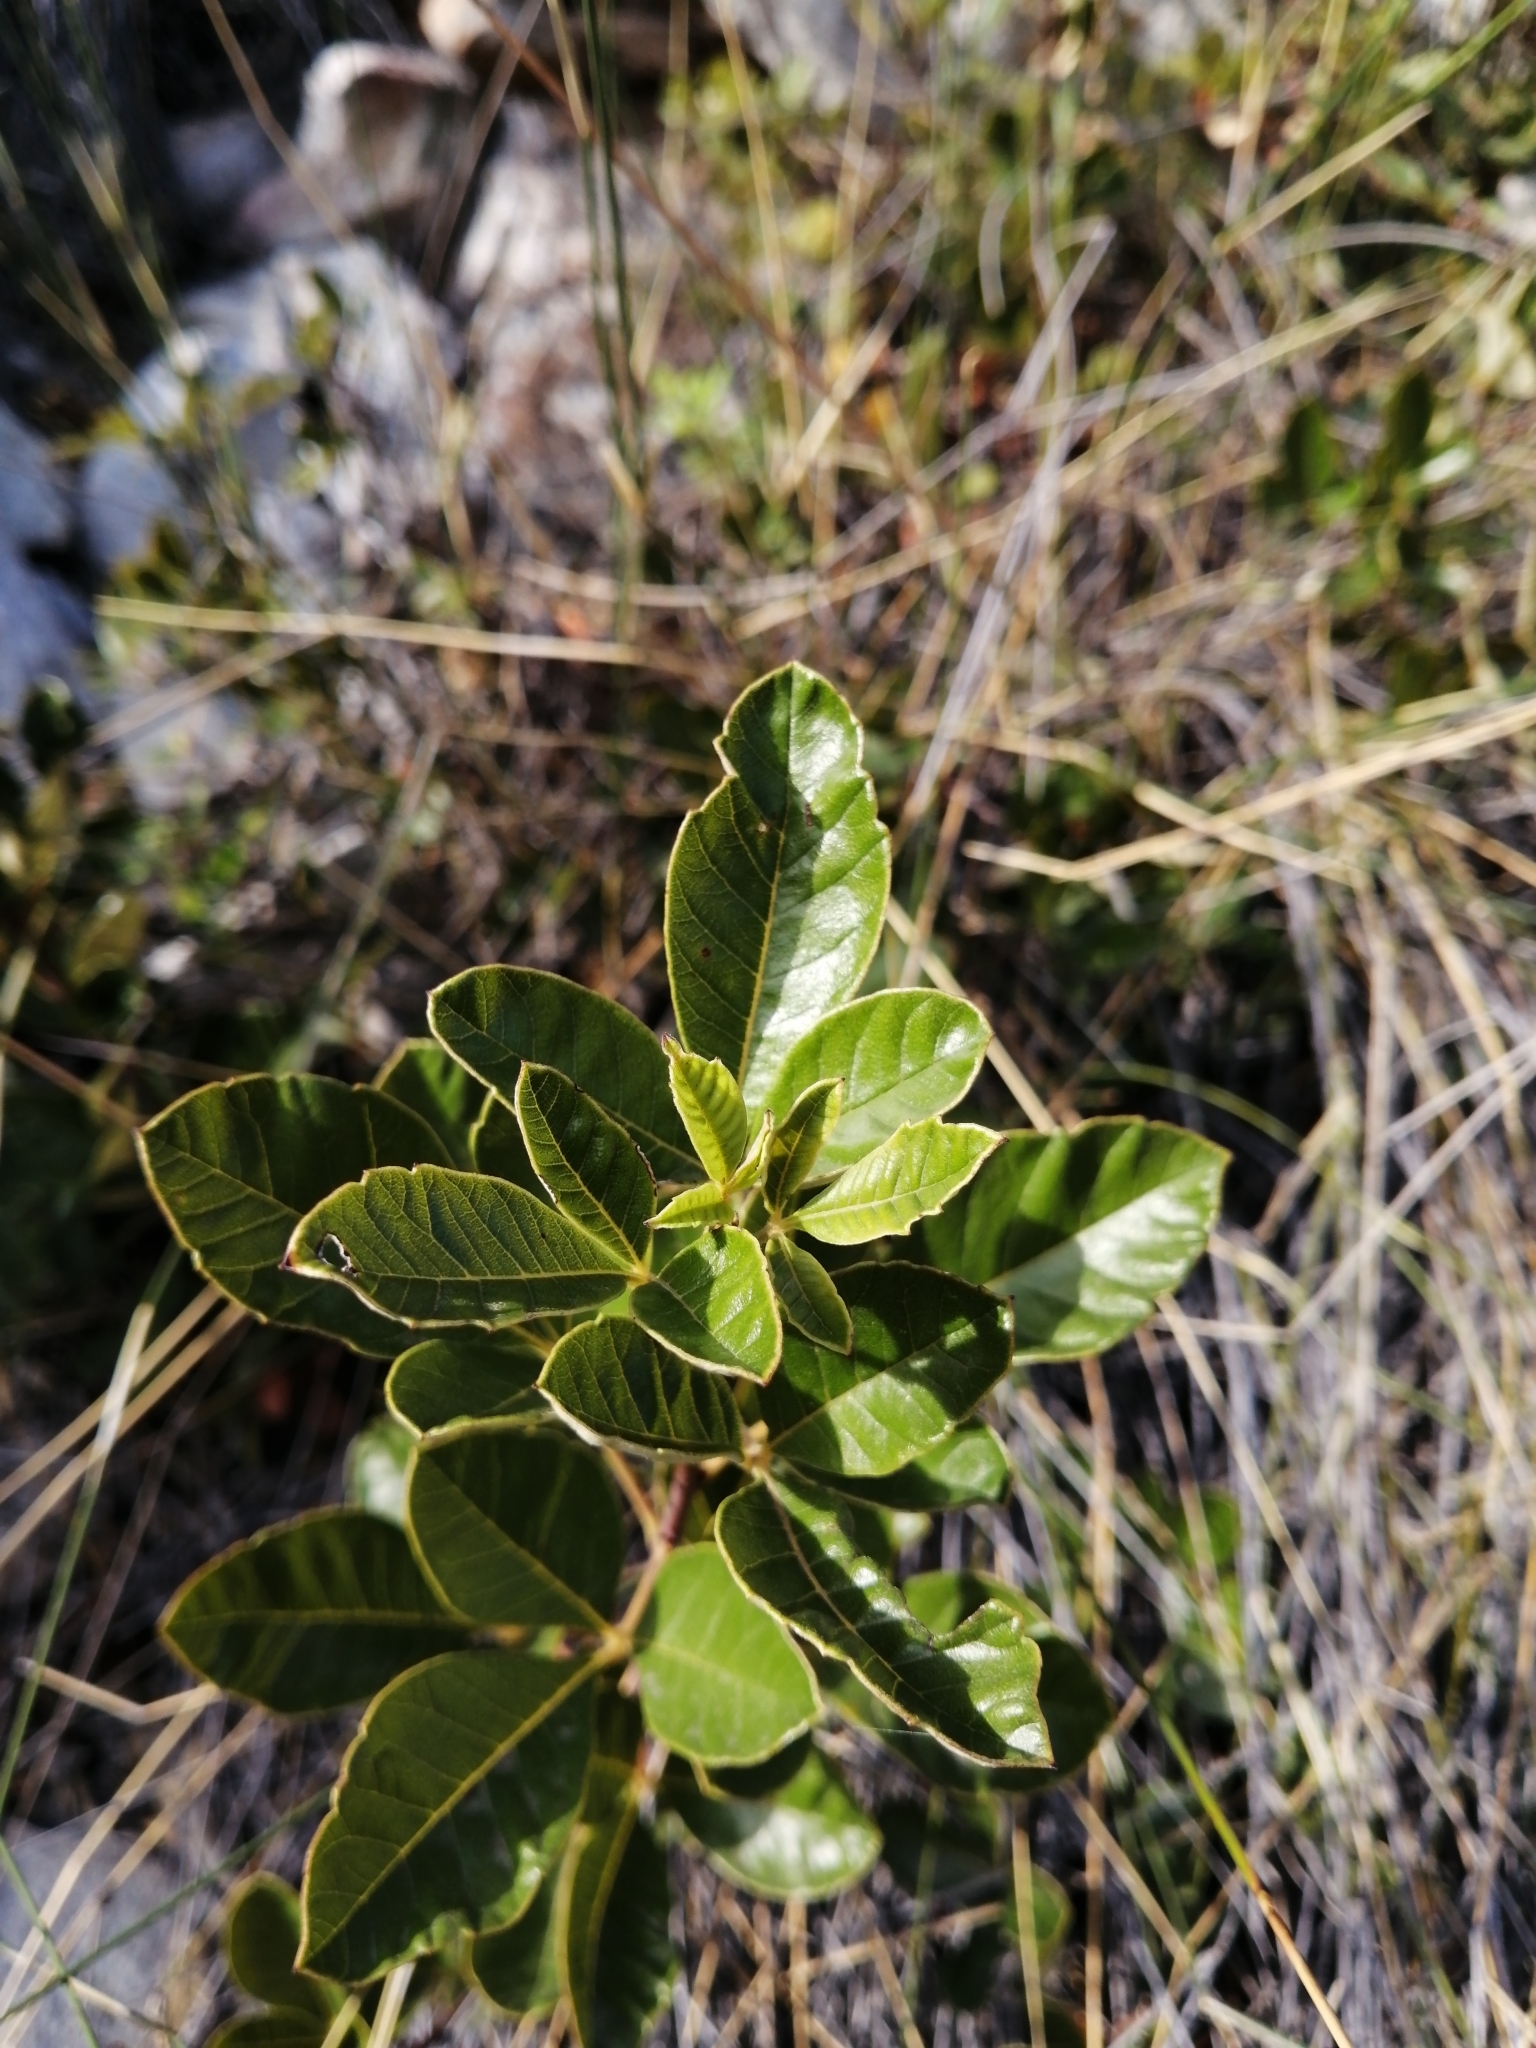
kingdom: Plantae
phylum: Tracheophyta
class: Magnoliopsida
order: Sapindales
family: Anacardiaceae
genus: Searsia
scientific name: Searsia tomentosa
